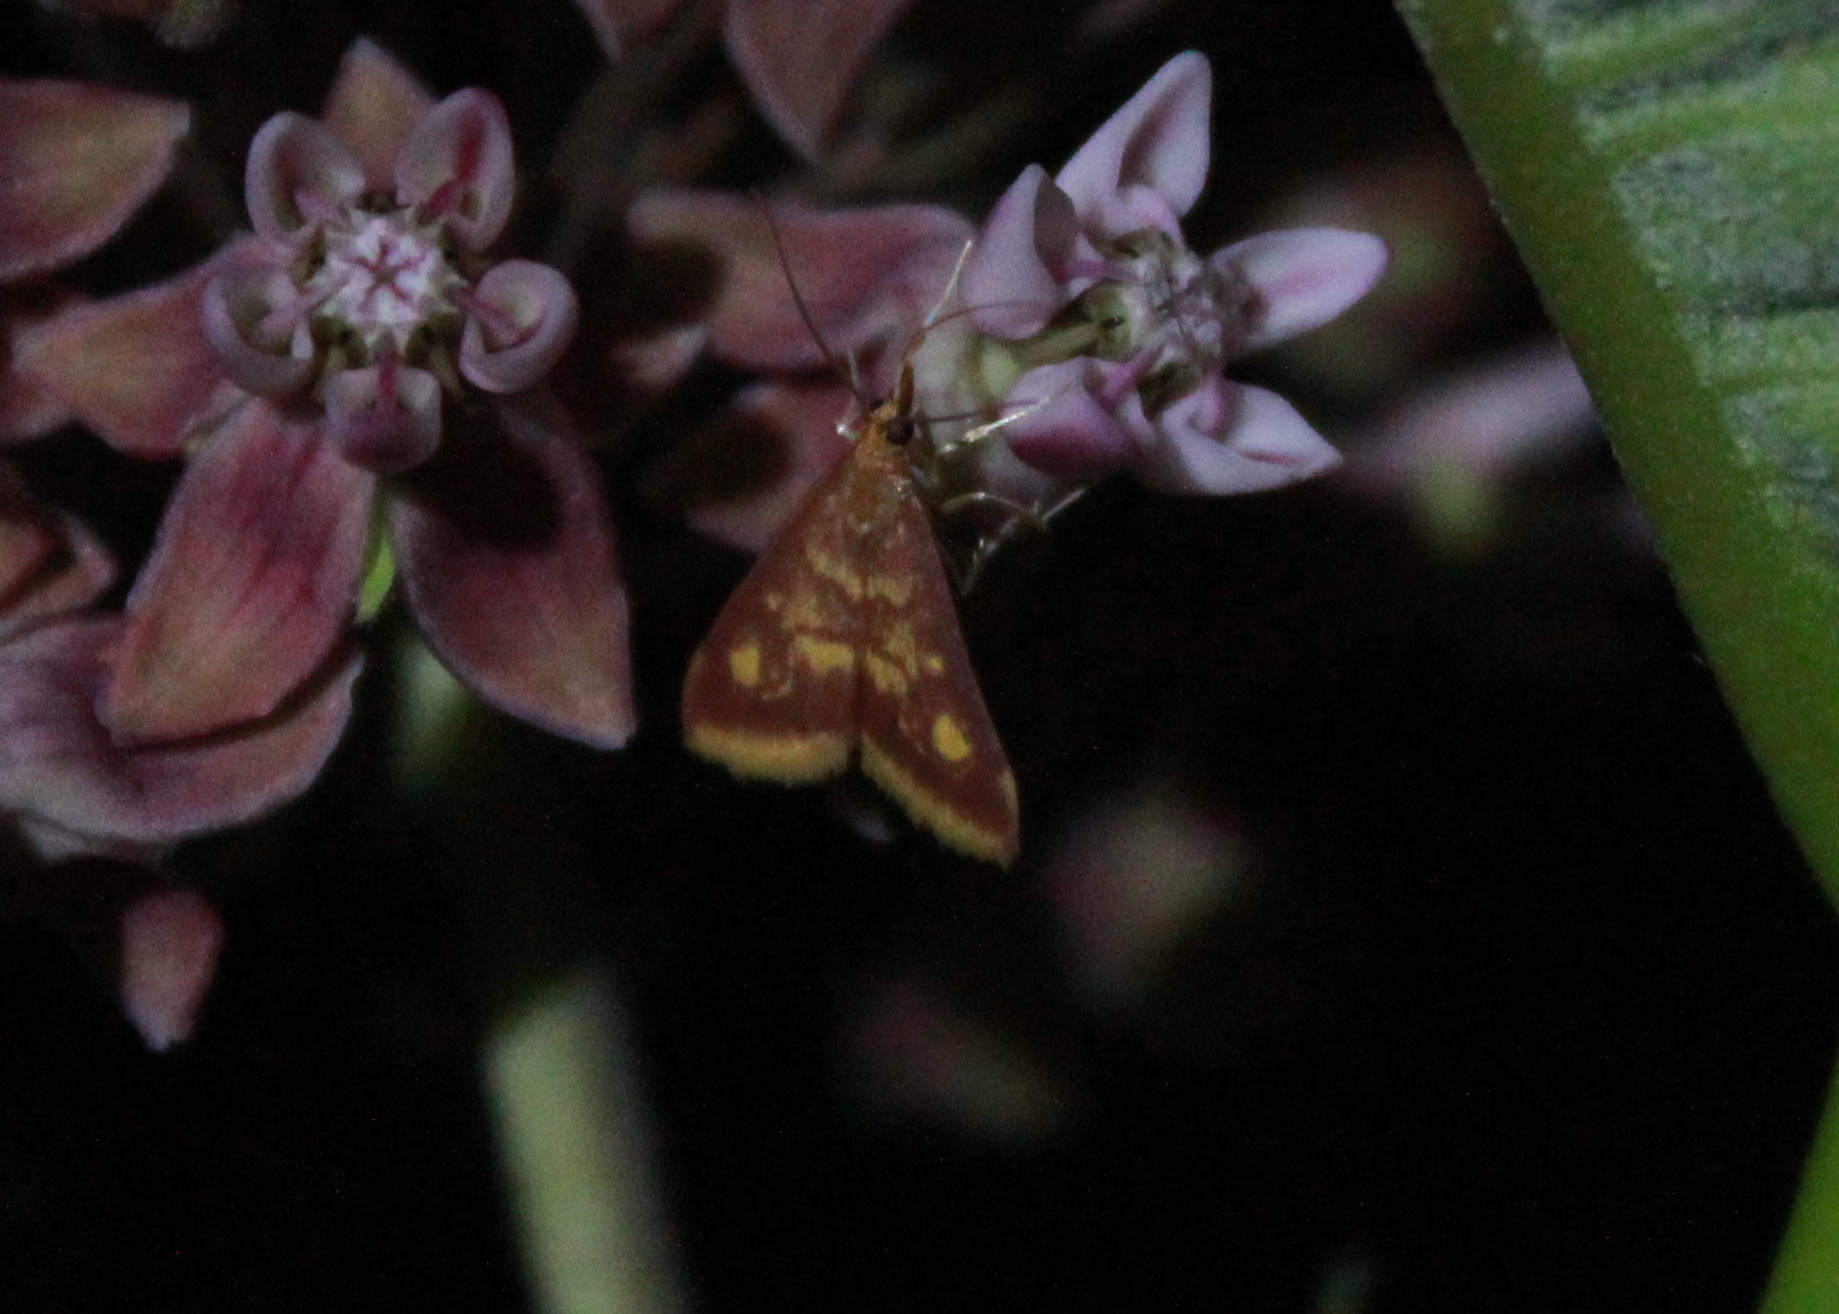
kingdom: Animalia
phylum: Arthropoda
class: Insecta
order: Lepidoptera
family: Crambidae
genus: Pyrausta
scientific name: Pyrausta acrionalis
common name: Mint-loving pyrausta moth
